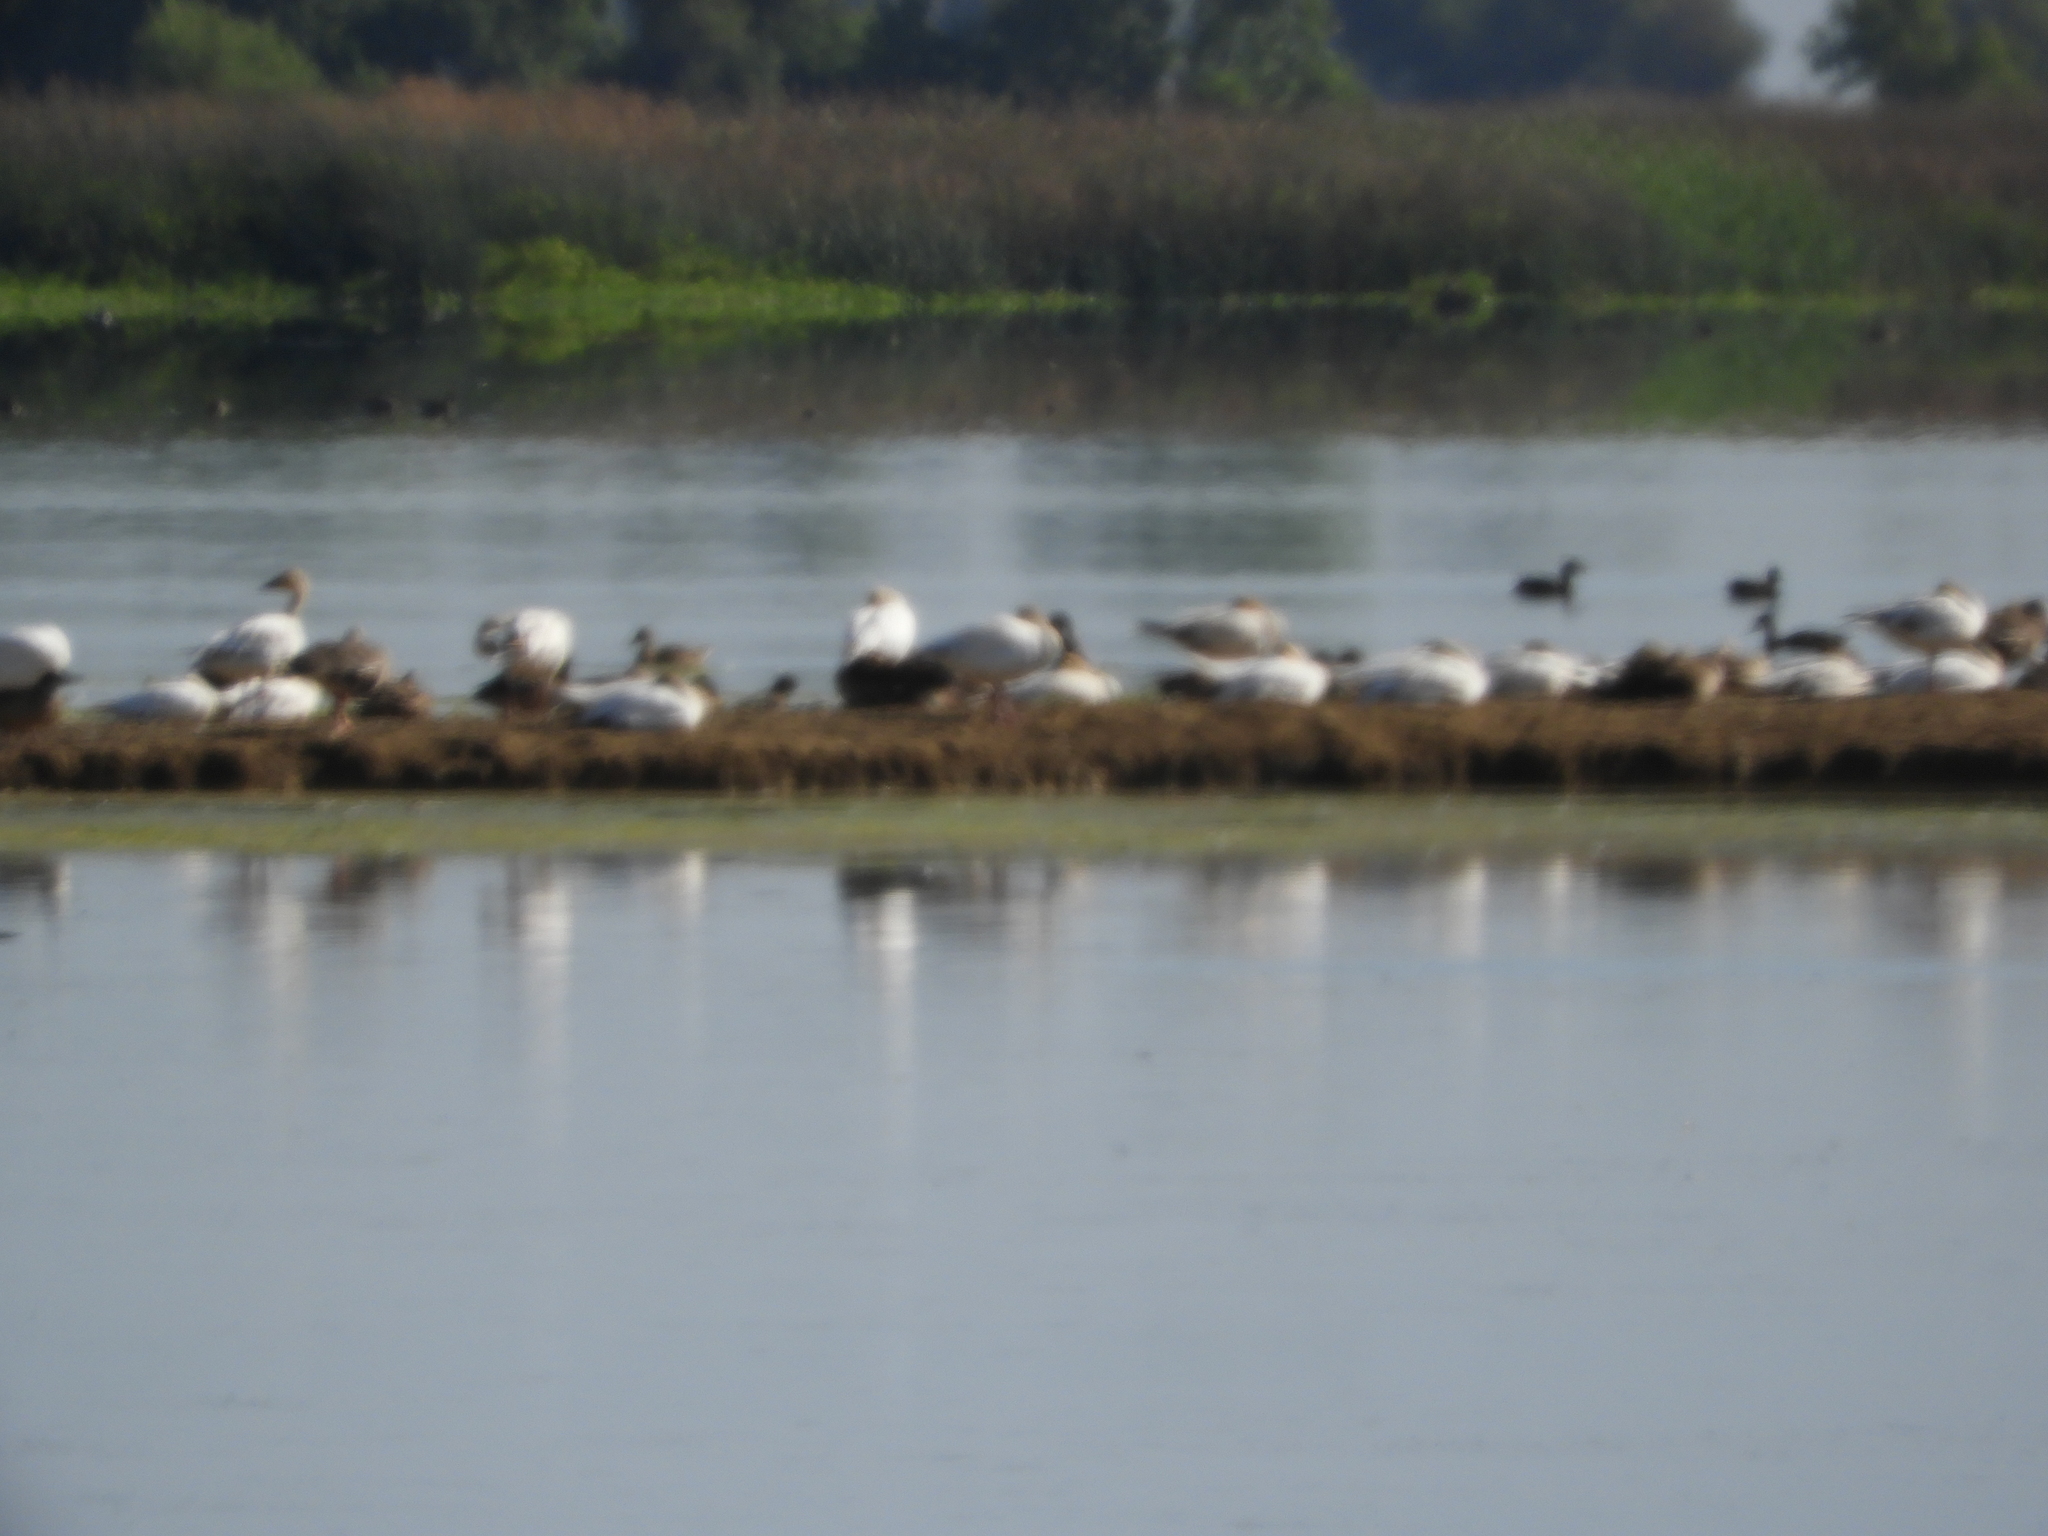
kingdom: Animalia
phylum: Chordata
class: Aves
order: Anseriformes
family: Anatidae
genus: Anser
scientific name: Anser caerulescens
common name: Snow goose
